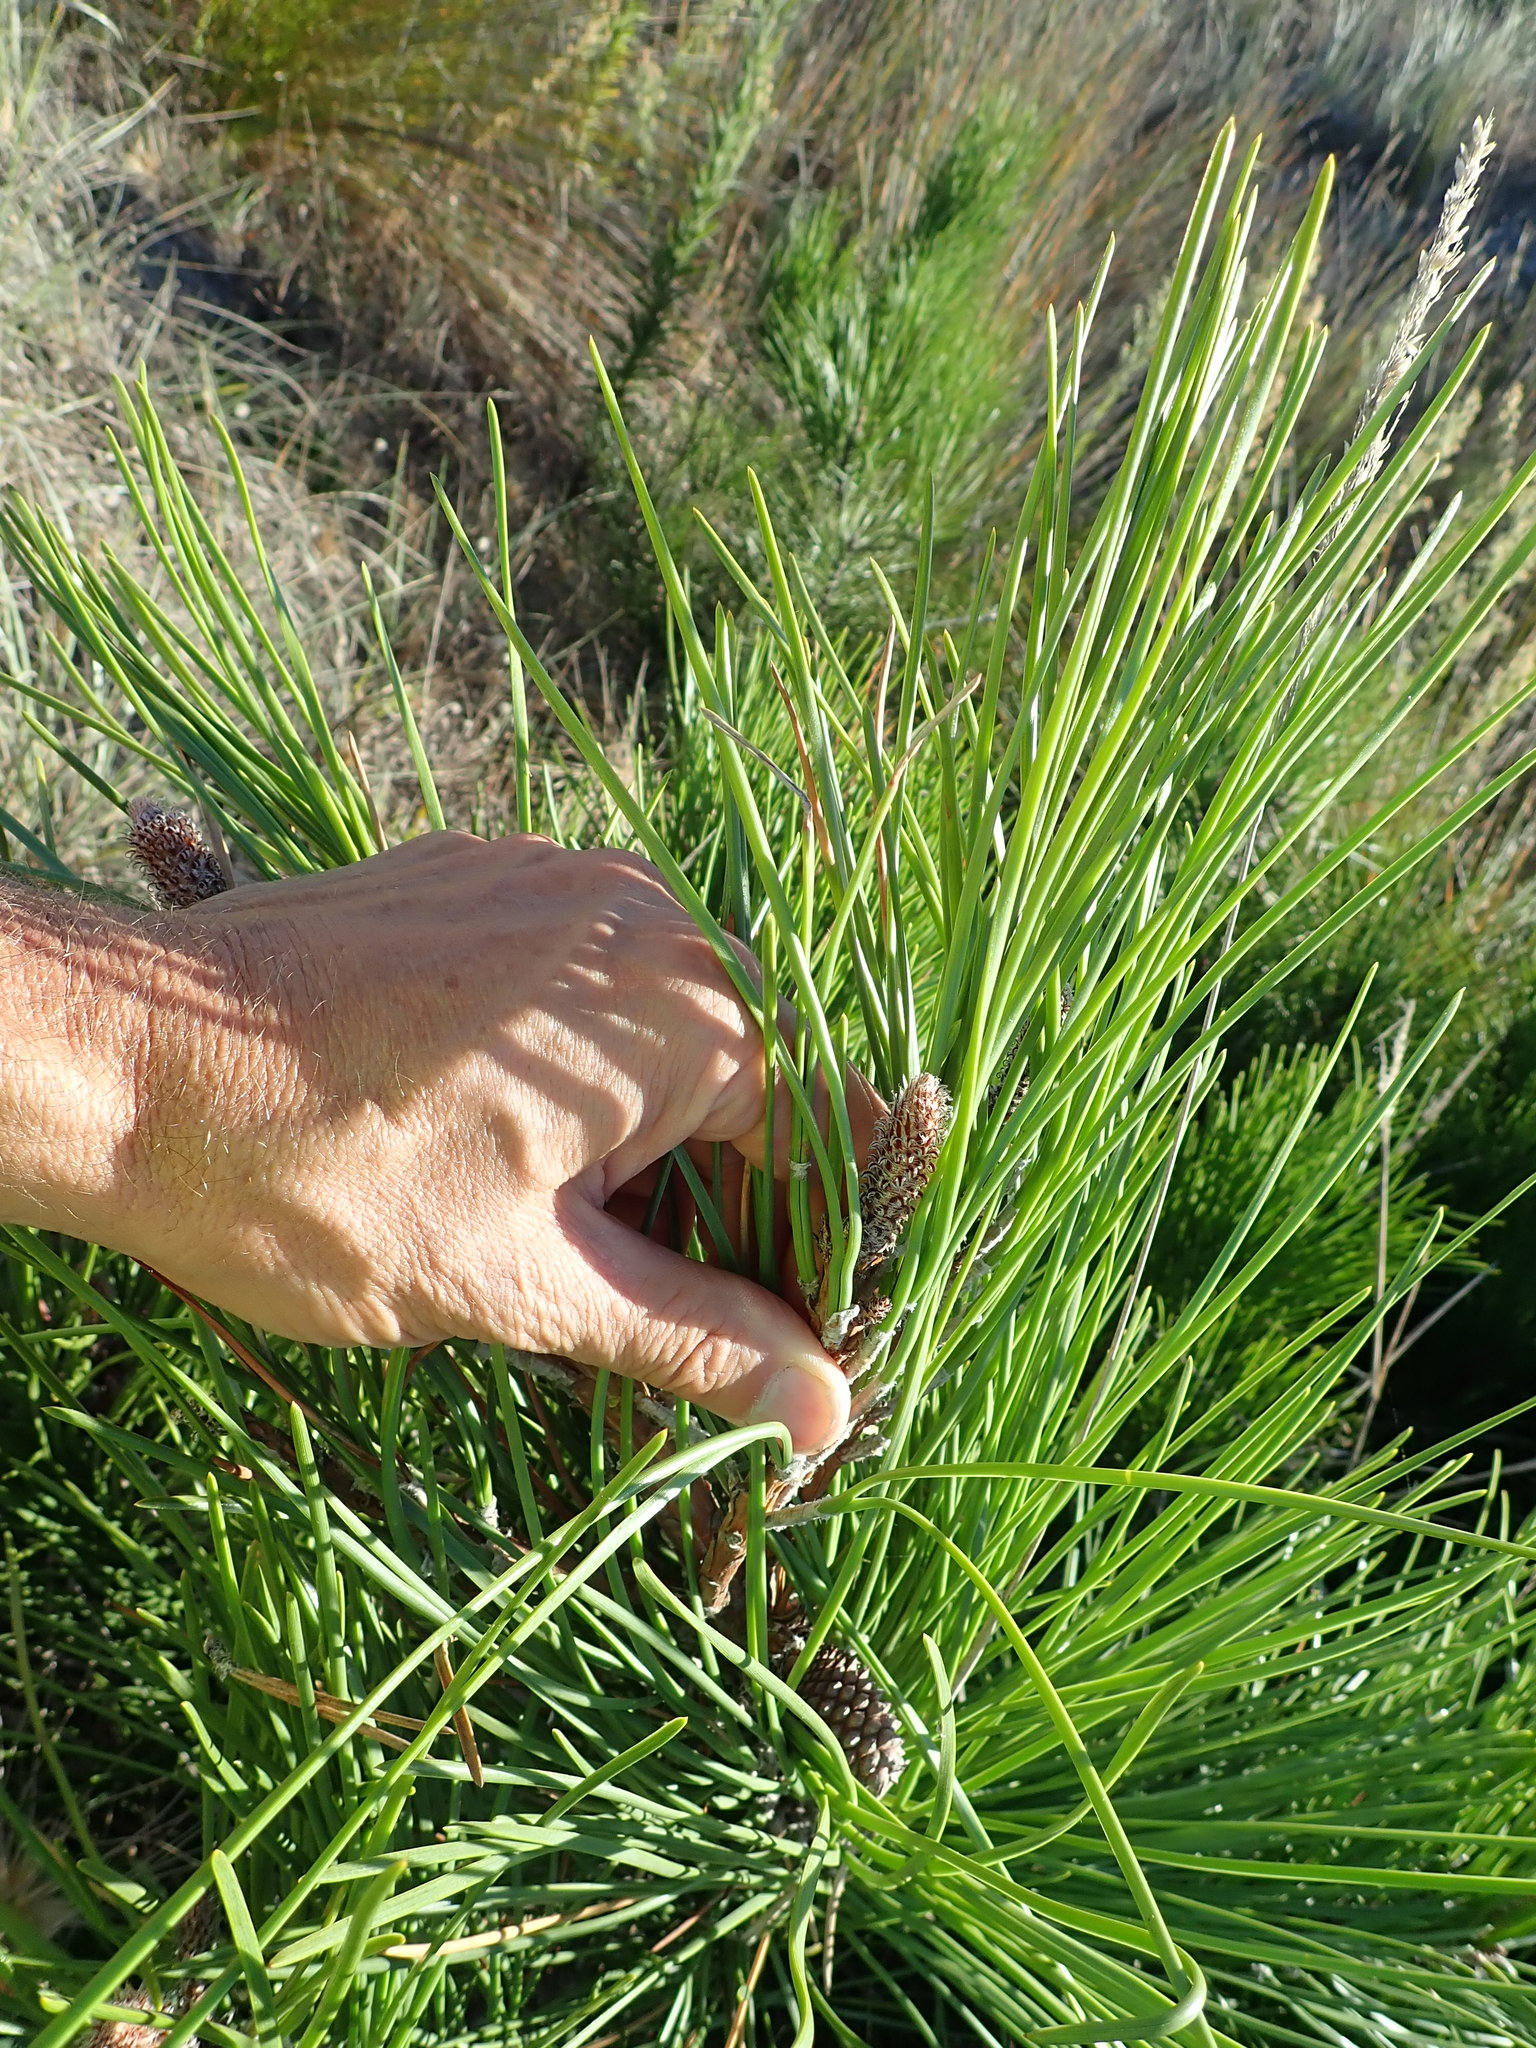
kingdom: Plantae
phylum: Tracheophyta
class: Pinopsida
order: Pinales
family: Pinaceae
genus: Pinus
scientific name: Pinus pinaster
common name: Maritime pine
